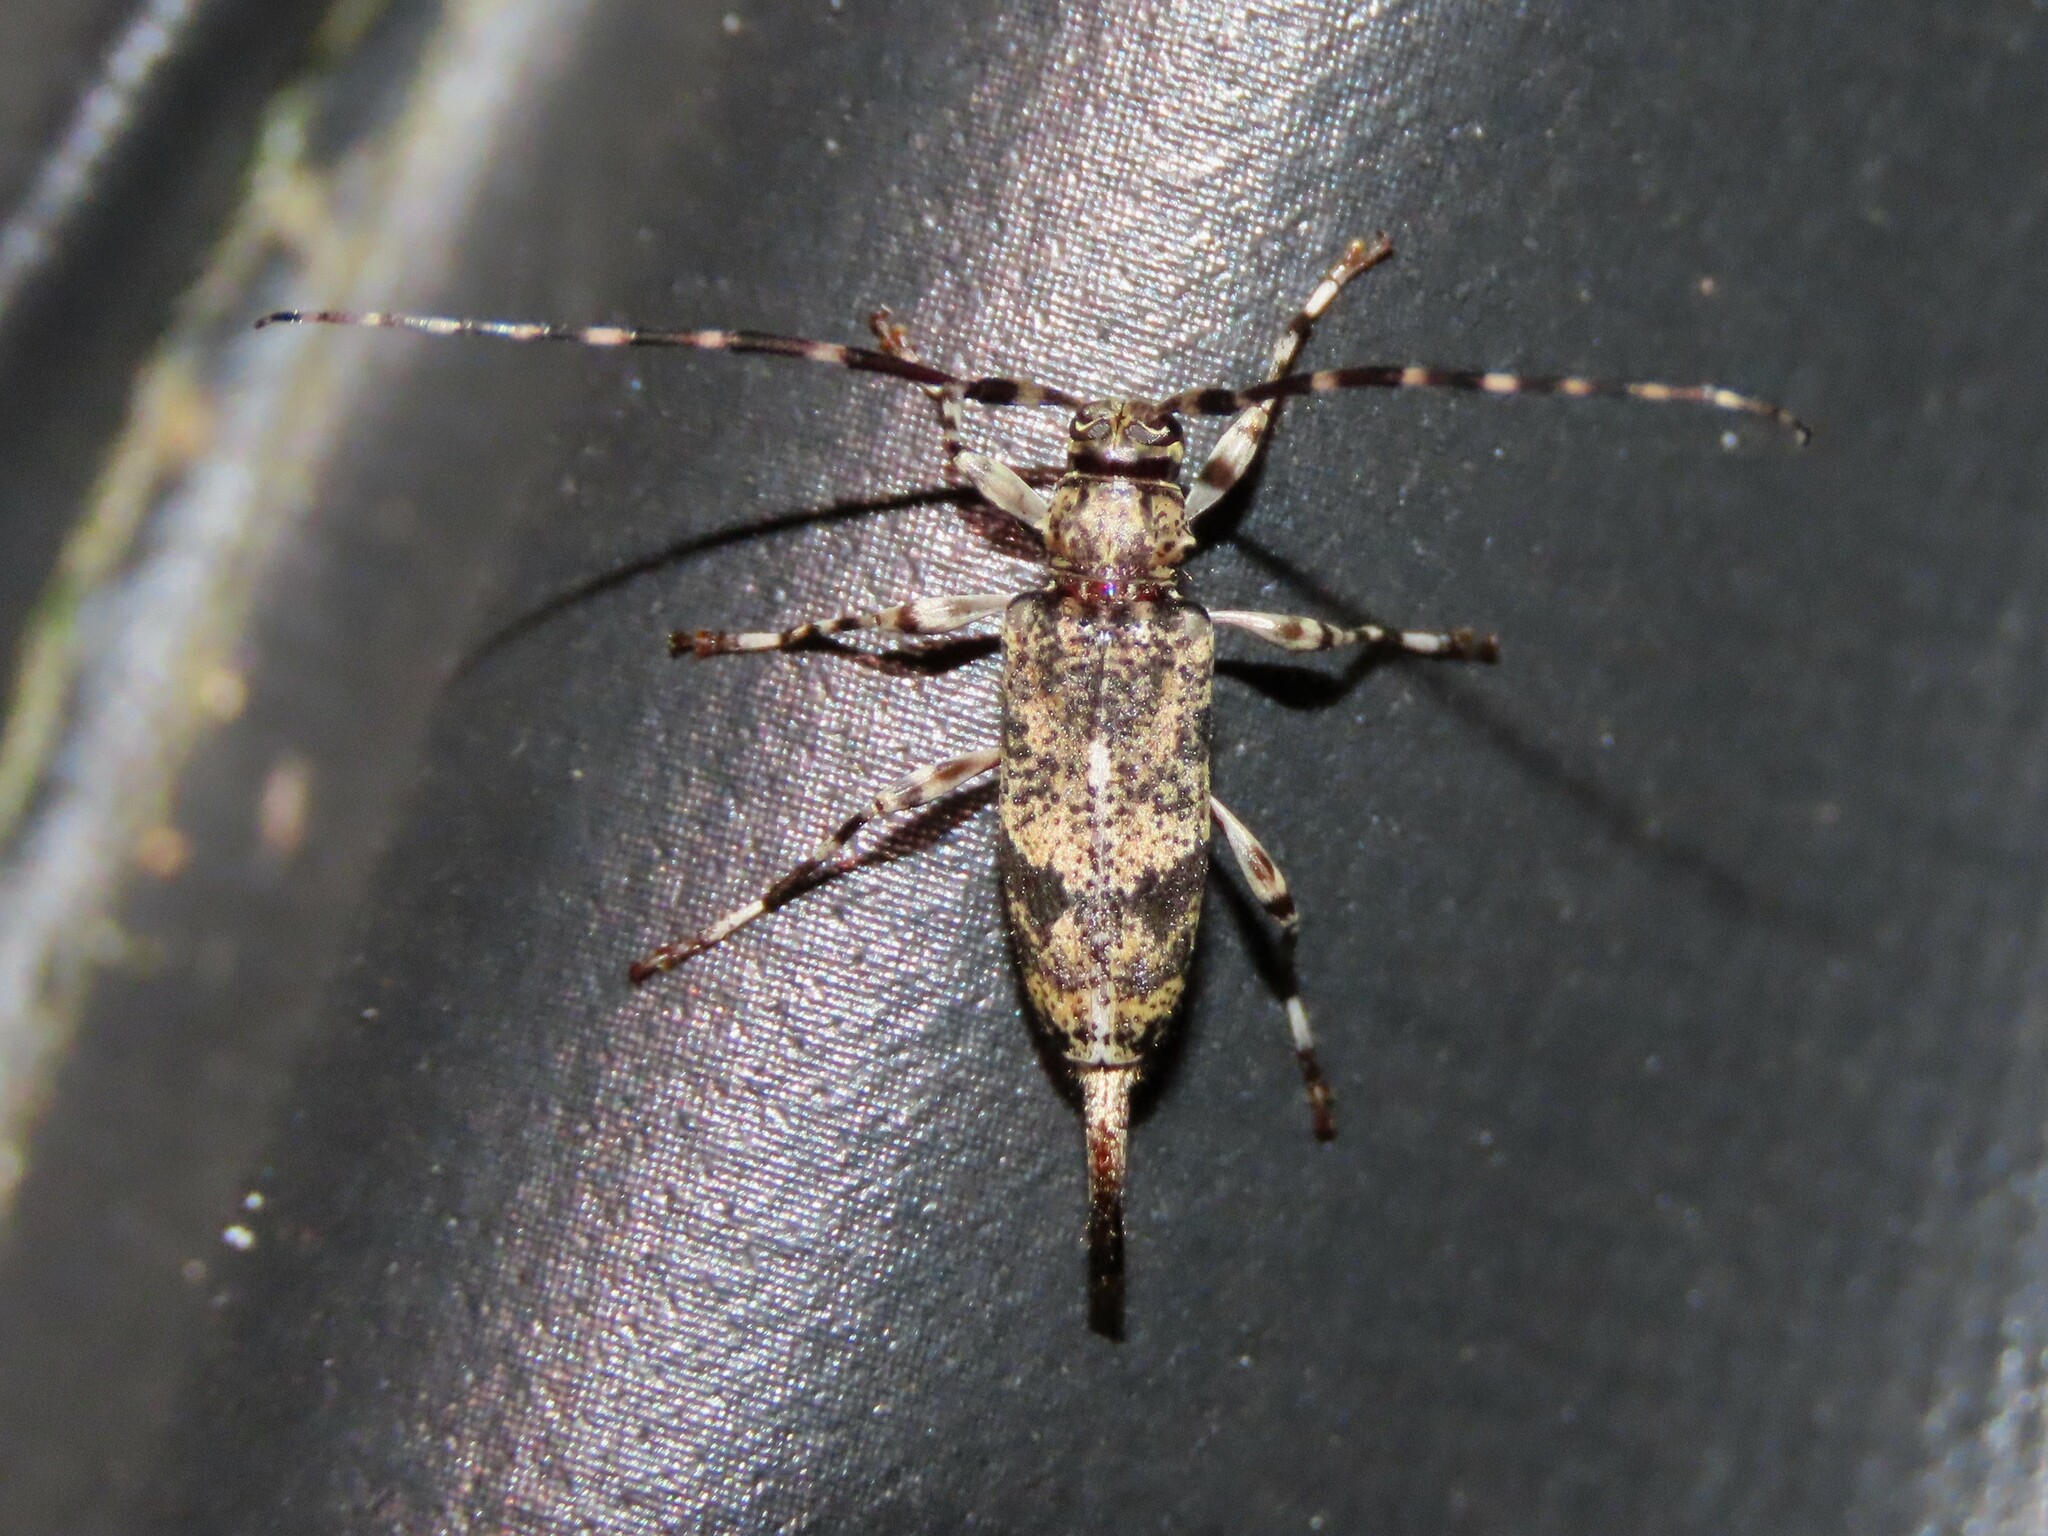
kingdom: Animalia
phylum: Arthropoda
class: Insecta
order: Coleoptera
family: Cerambycidae
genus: Graphisurus
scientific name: Graphisurus despectus
